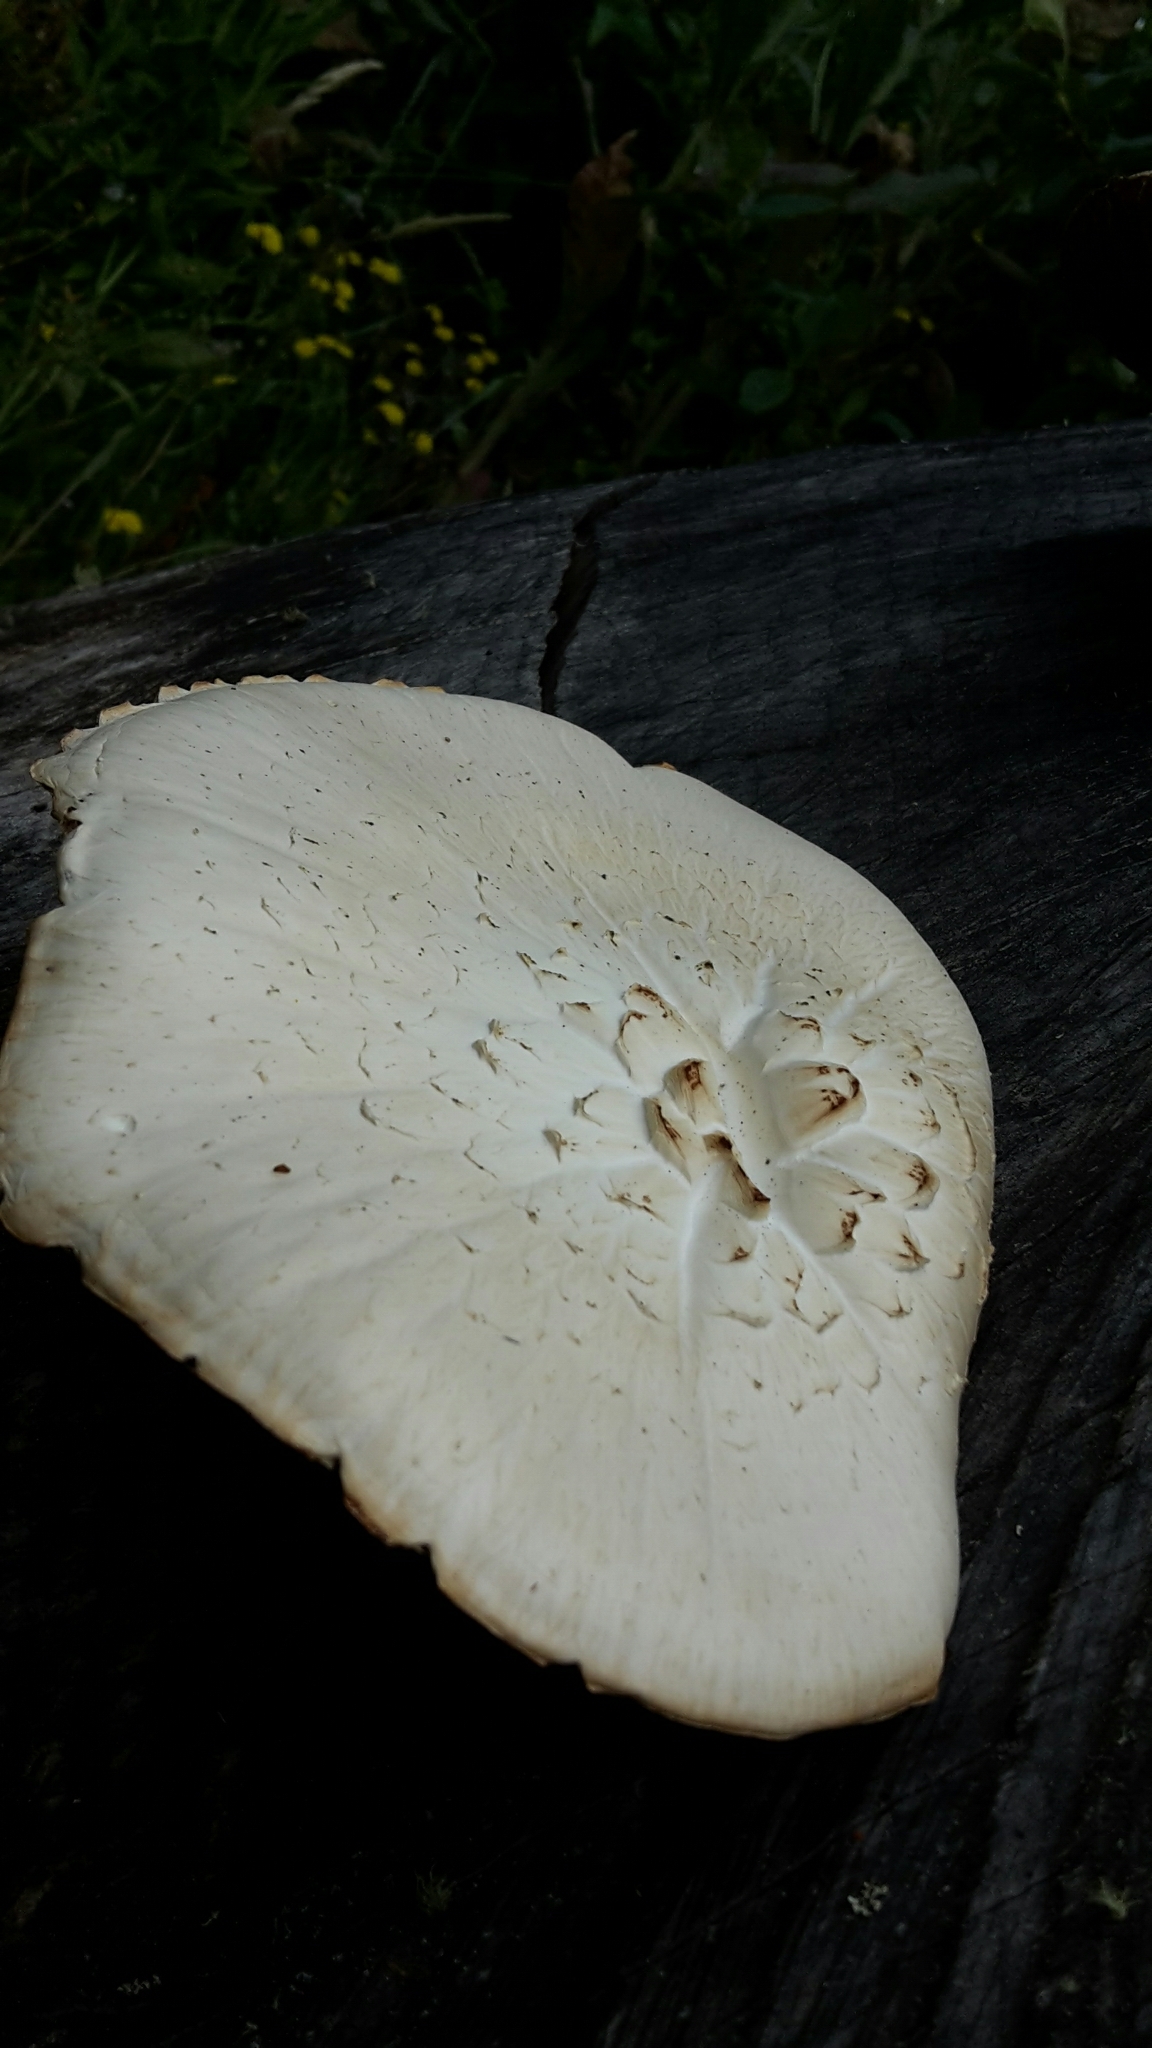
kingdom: Fungi
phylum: Basidiomycota
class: Agaricomycetes
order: Gloeophyllales
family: Gloeophyllaceae
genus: Neolentinus
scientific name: Neolentinus lepideus
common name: Scaly sawgill
